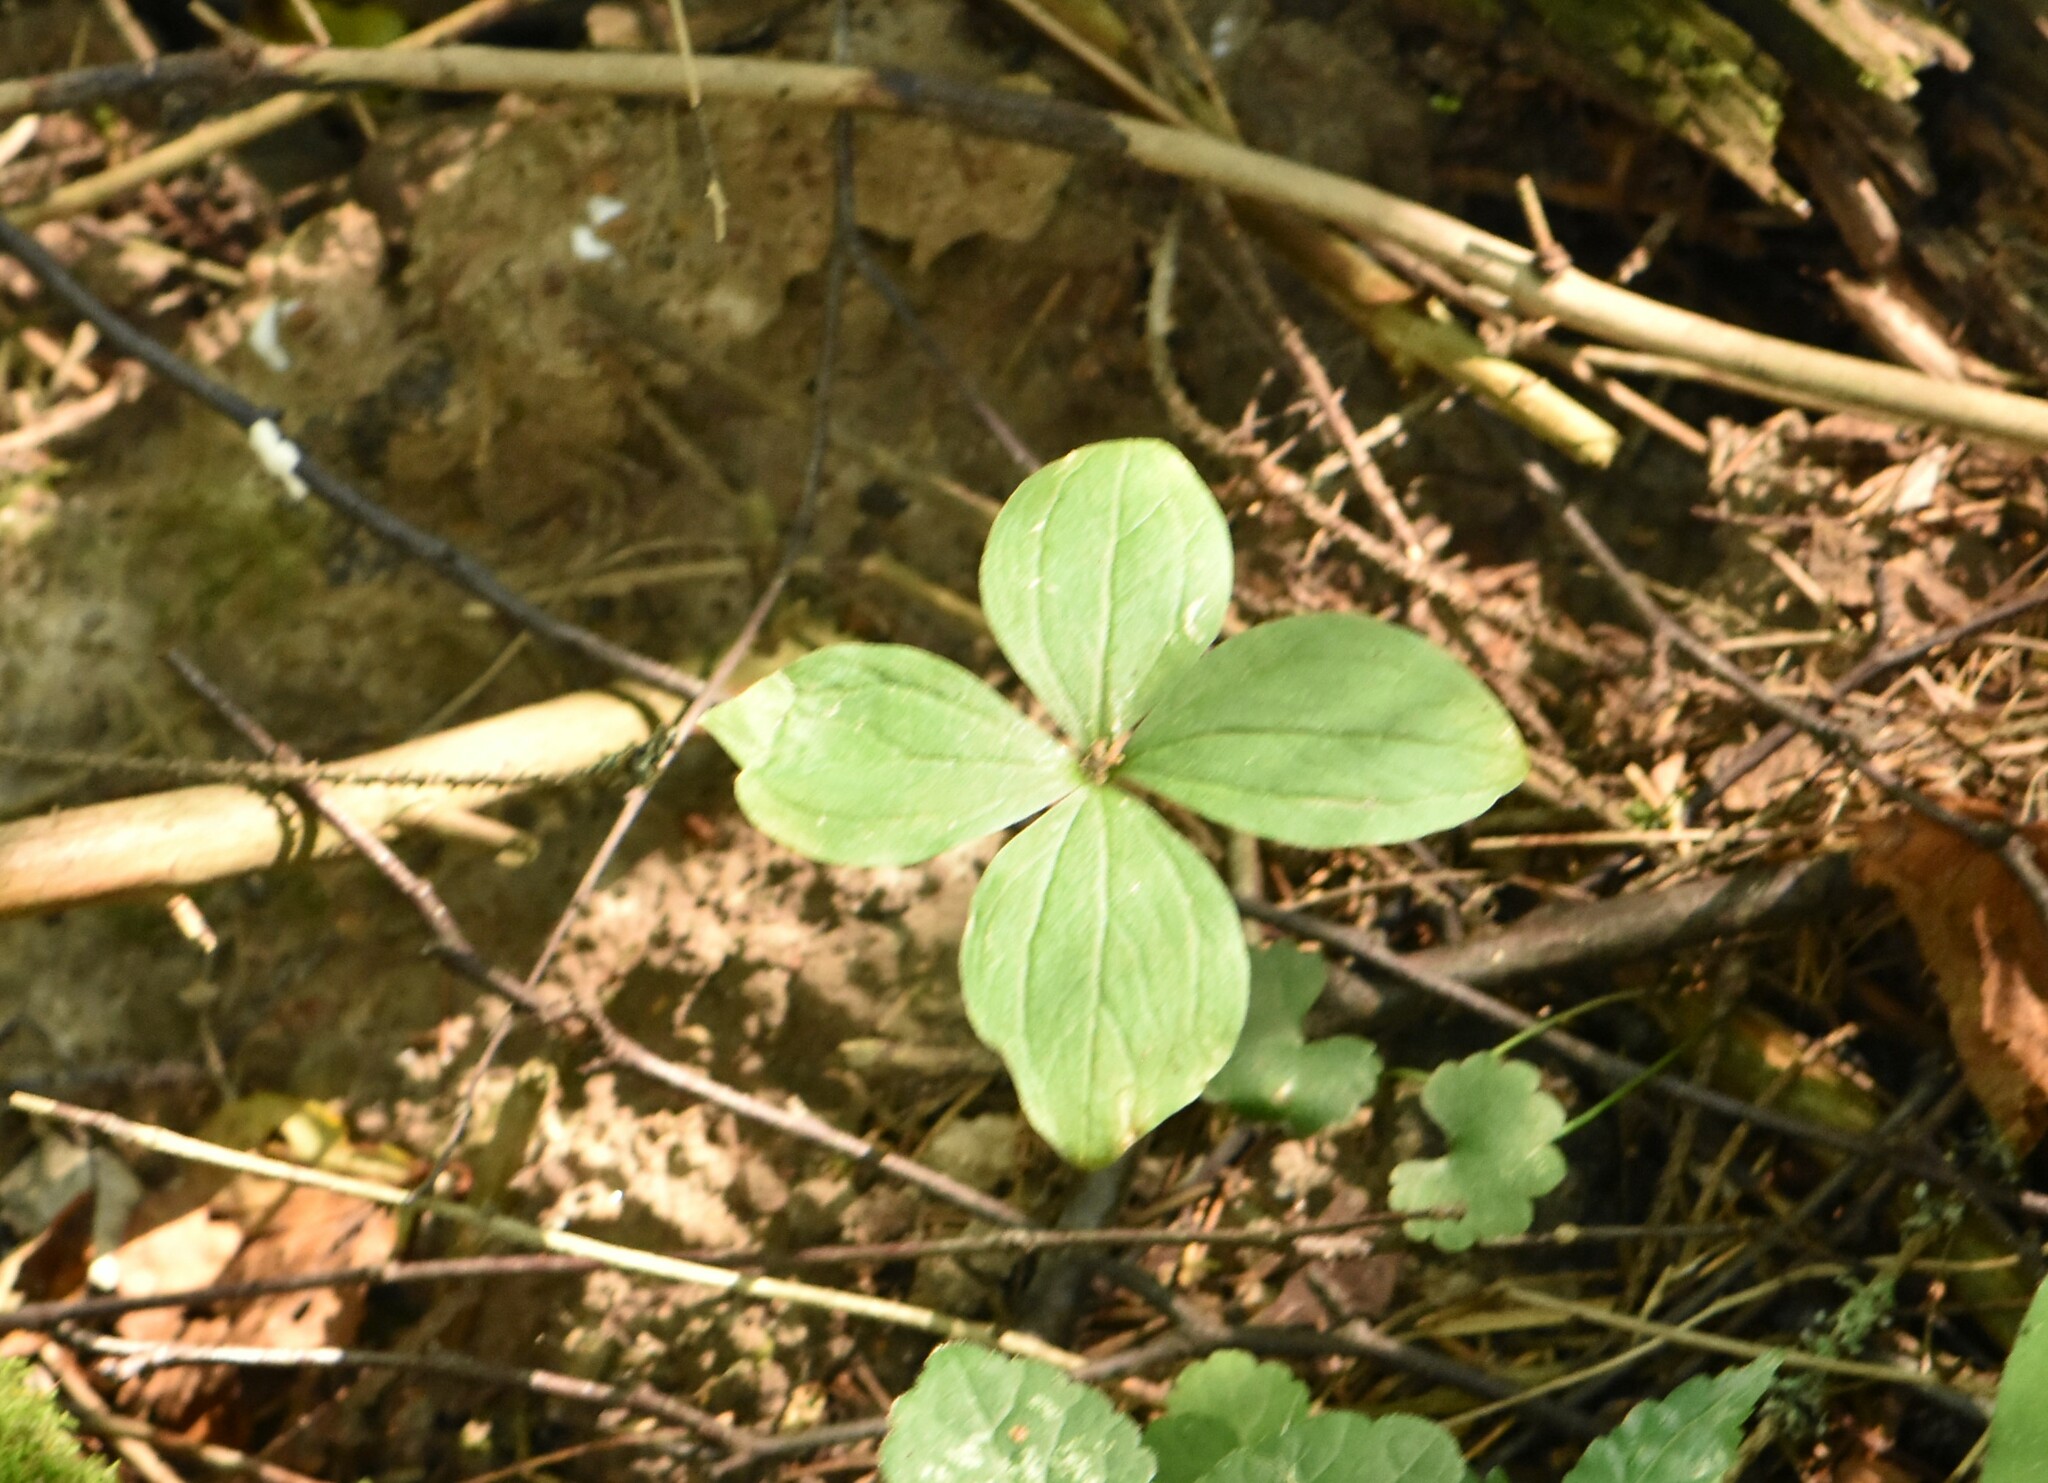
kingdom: Plantae
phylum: Tracheophyta
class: Liliopsida
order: Liliales
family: Melanthiaceae
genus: Paris
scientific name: Paris quadrifolia
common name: Herb-paris
